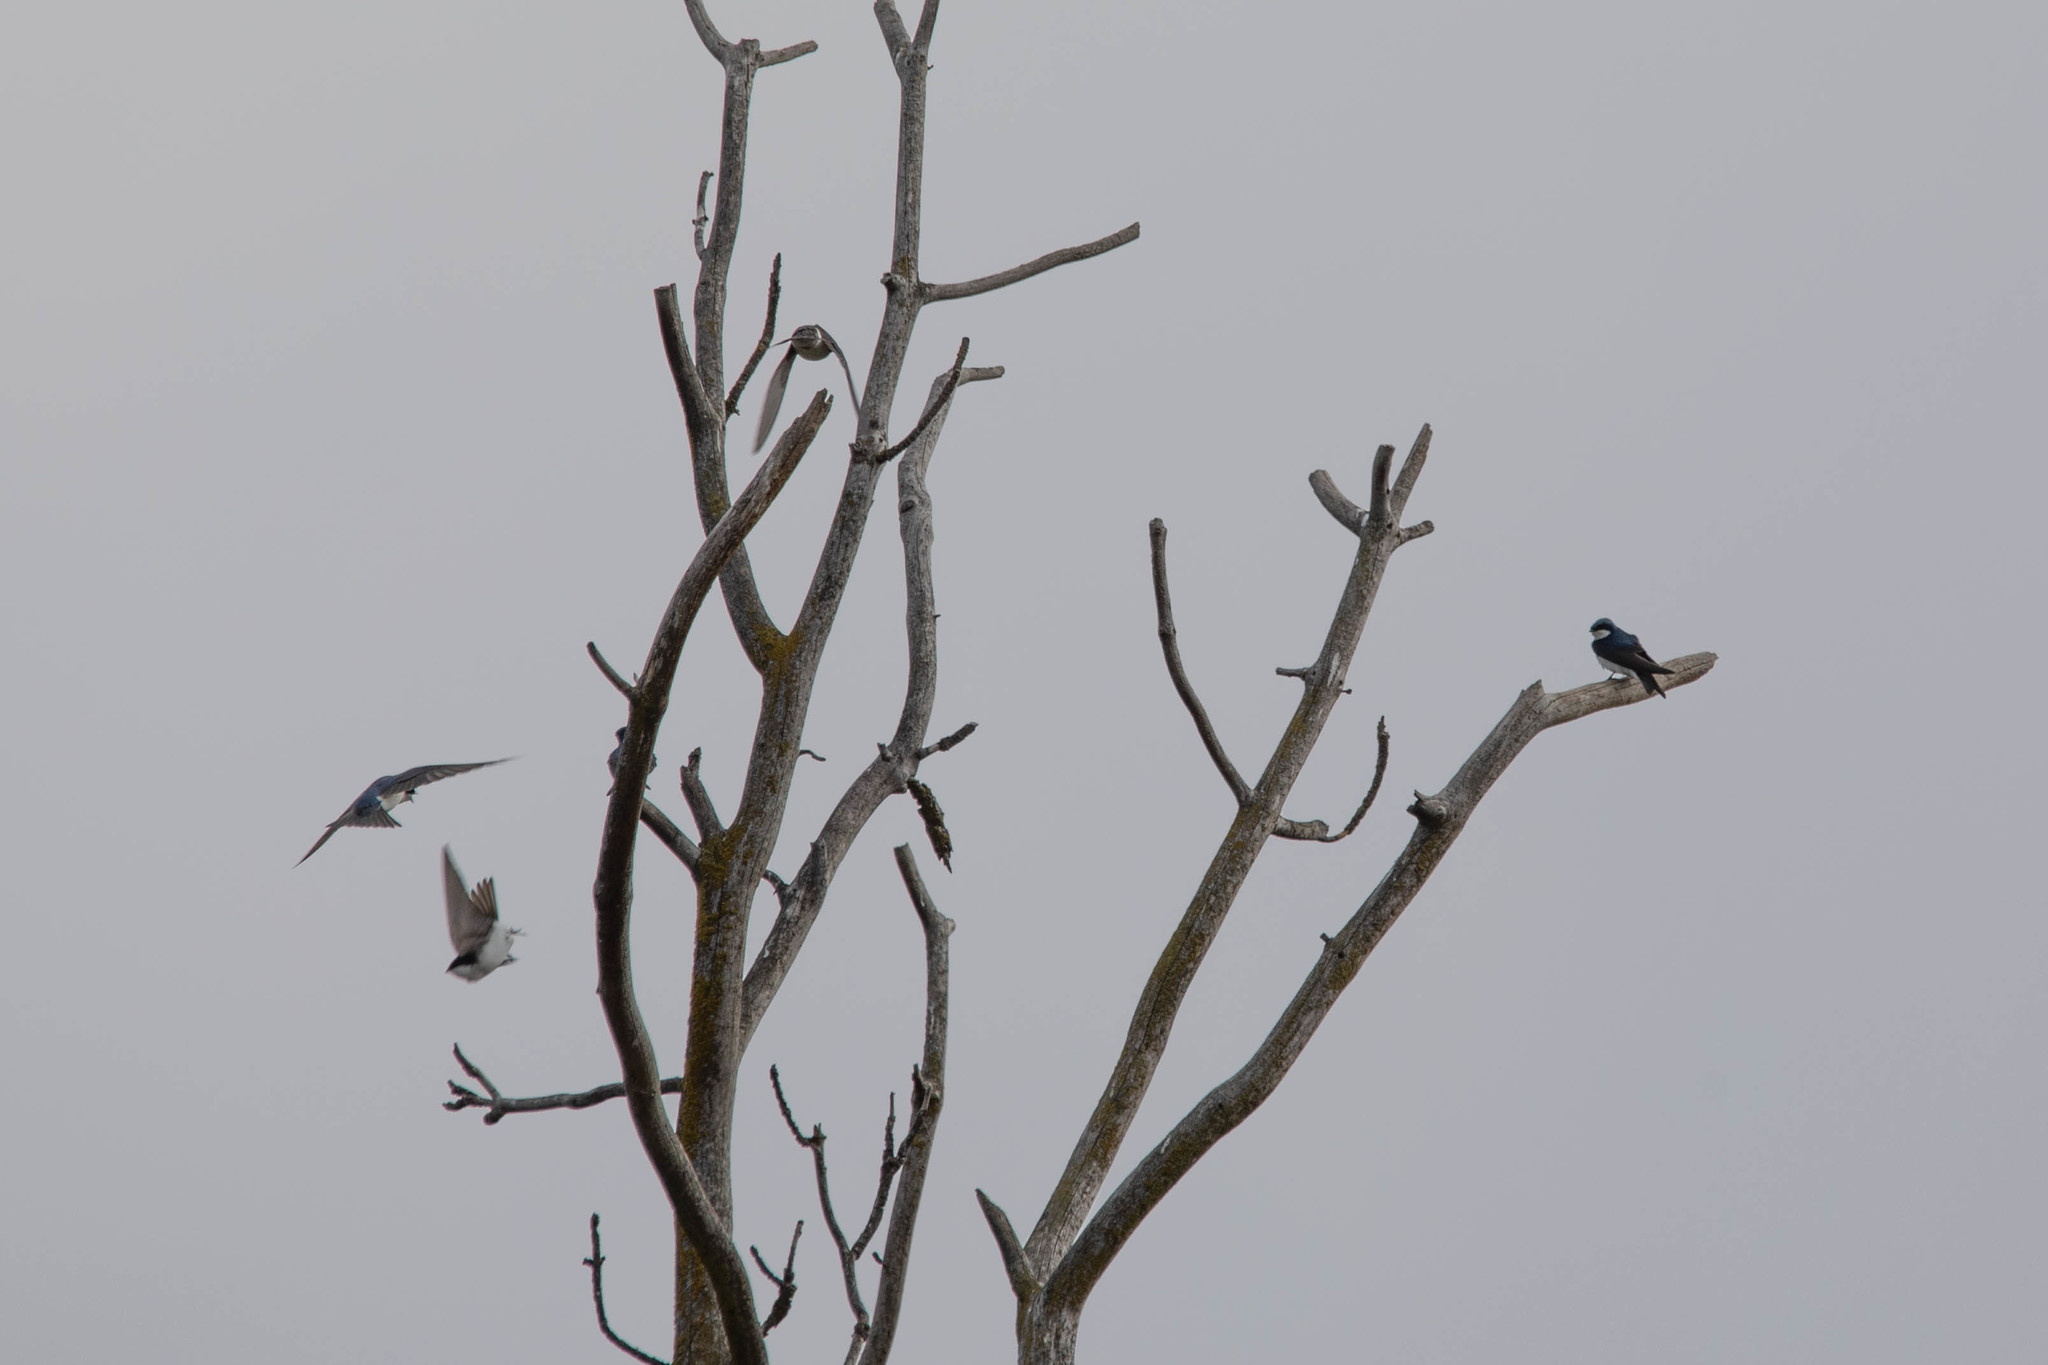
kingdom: Animalia
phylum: Chordata
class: Aves
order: Passeriformes
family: Hirundinidae
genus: Tachycineta
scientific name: Tachycineta bicolor
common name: Tree swallow
